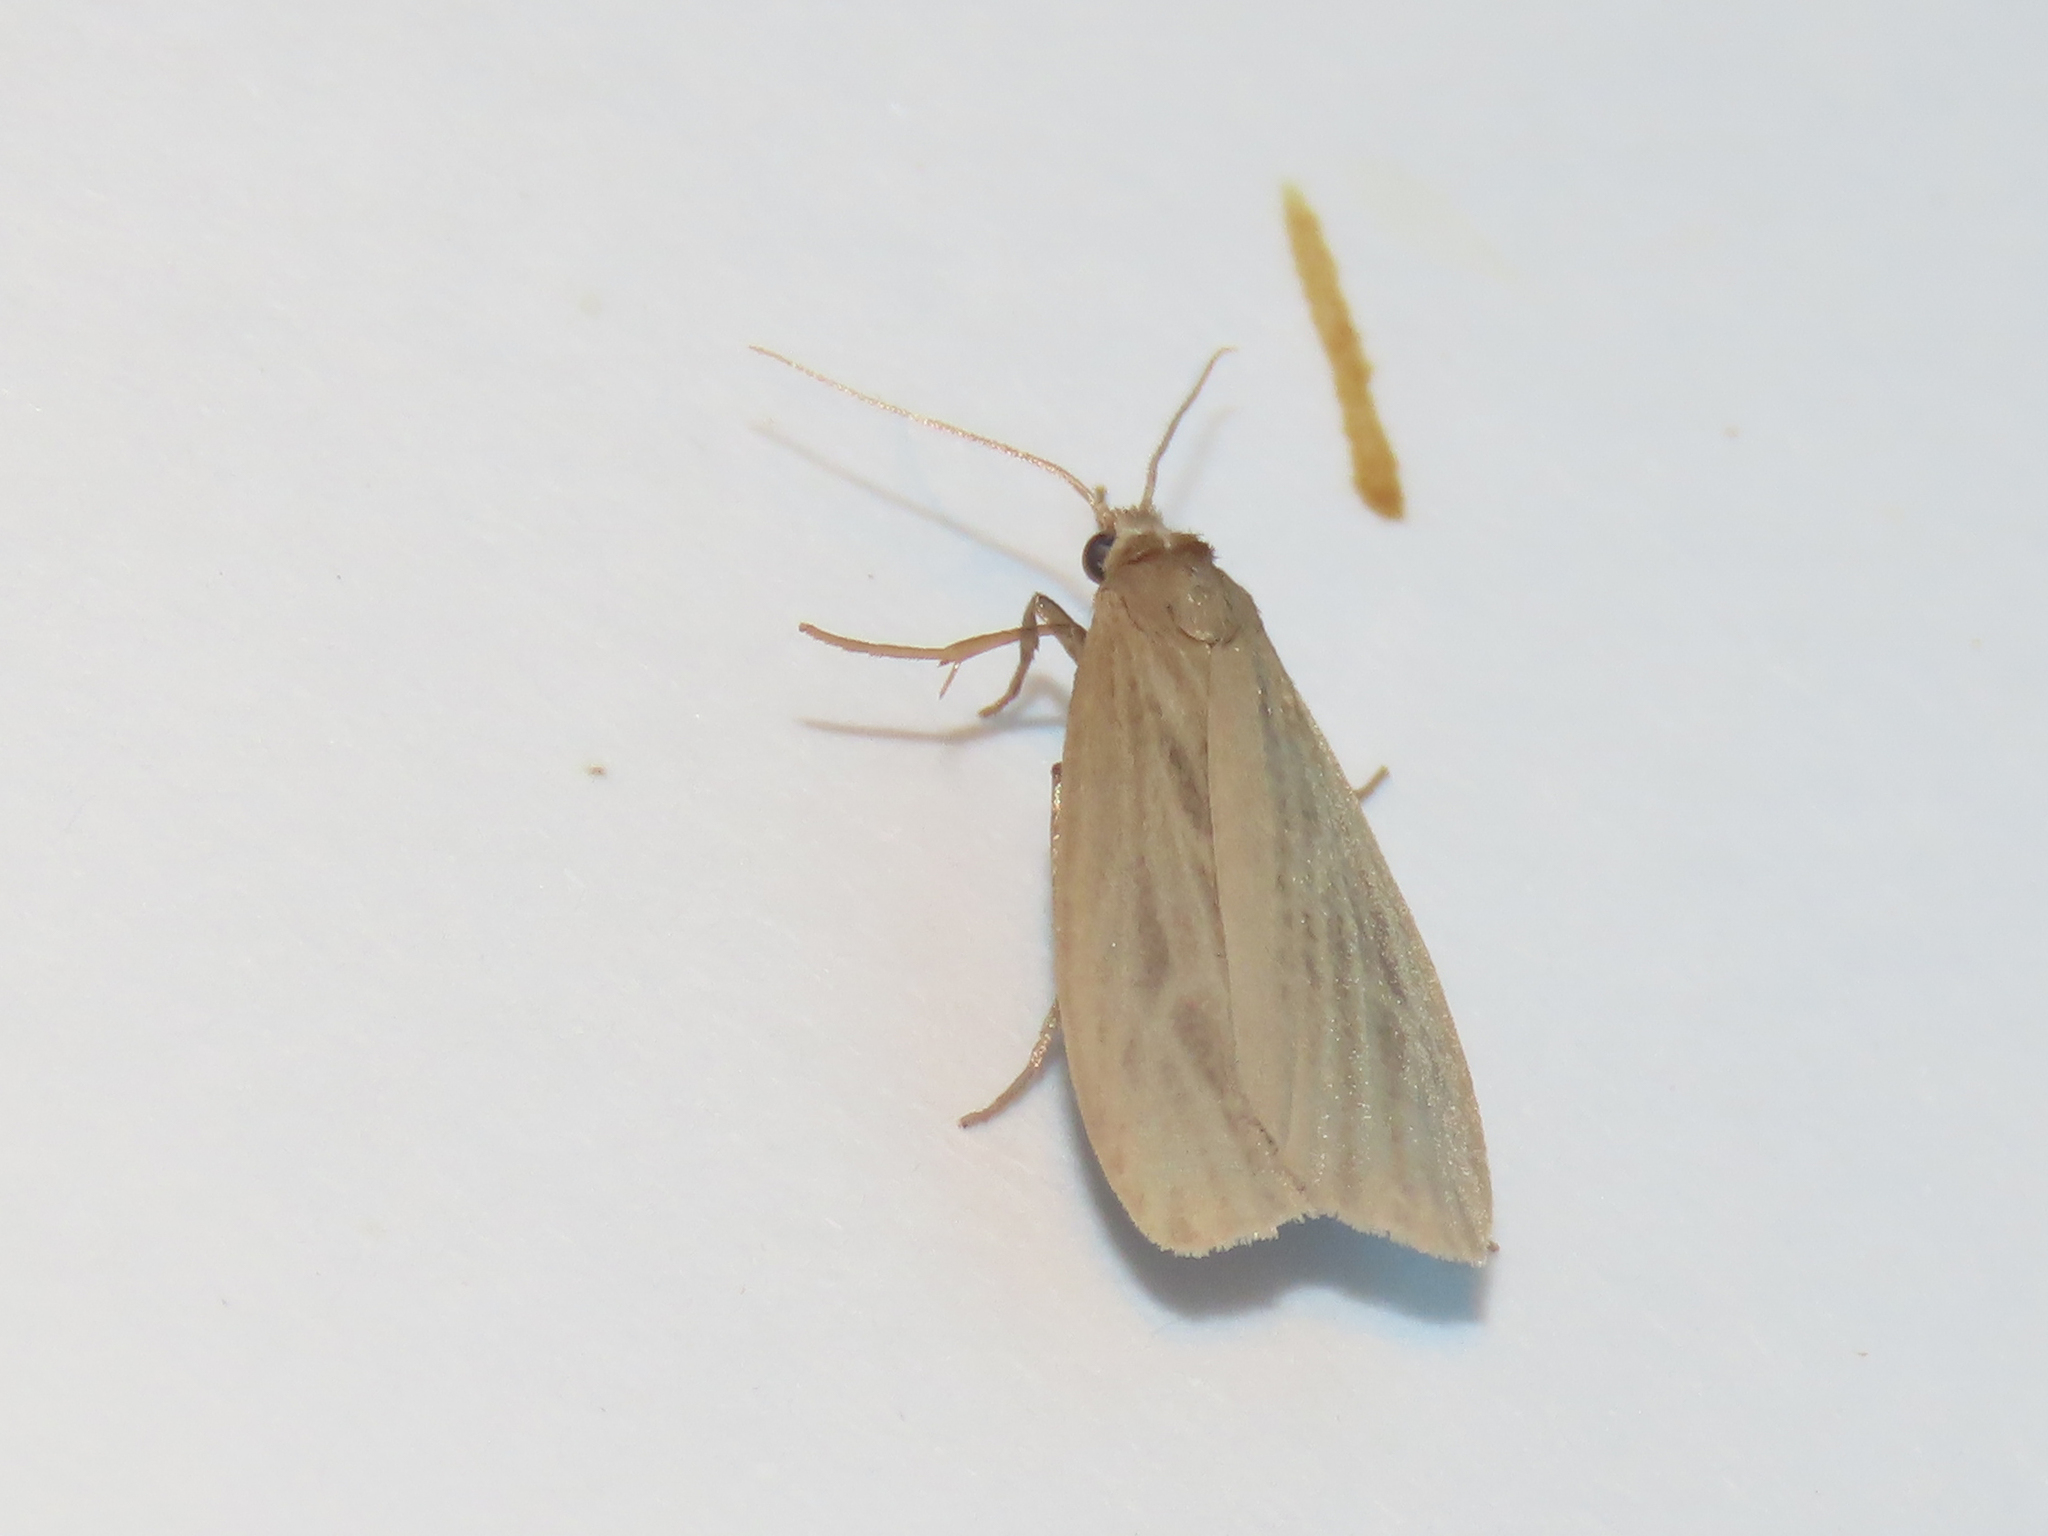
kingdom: Animalia
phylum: Arthropoda
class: Insecta
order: Lepidoptera
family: Erebidae
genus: Crambidia
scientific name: Crambidia pallida
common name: Pale lichen moth
